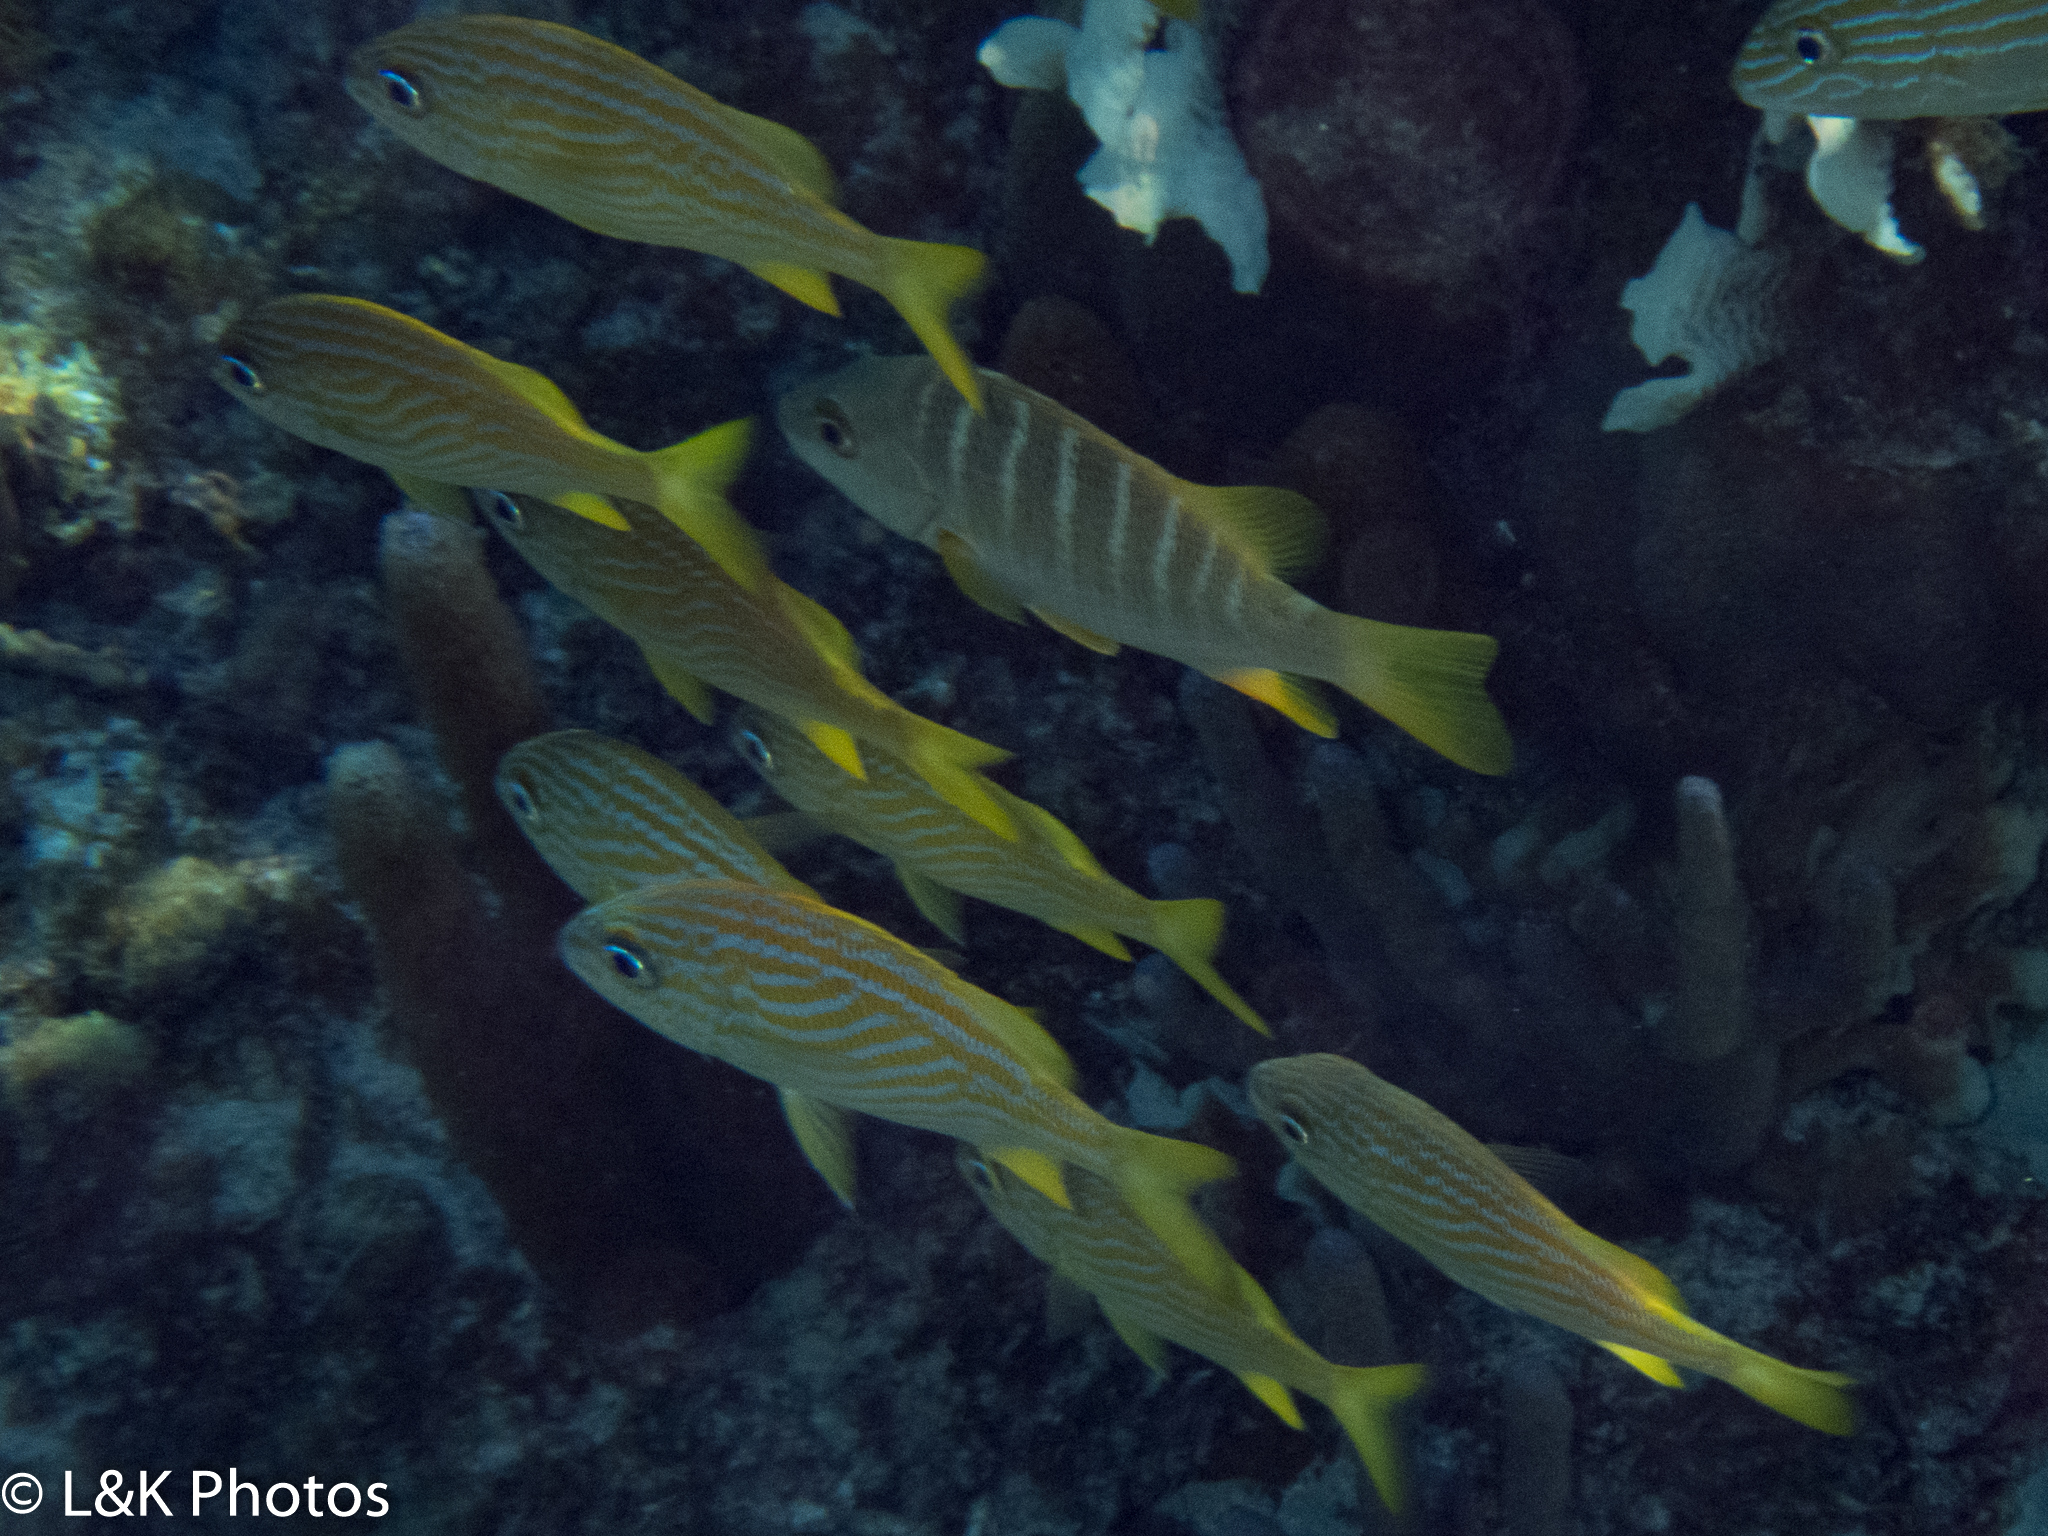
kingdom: Animalia
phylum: Chordata
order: Perciformes
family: Lutjanidae
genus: Lutjanus
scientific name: Lutjanus apodus
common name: Schoolmaster
